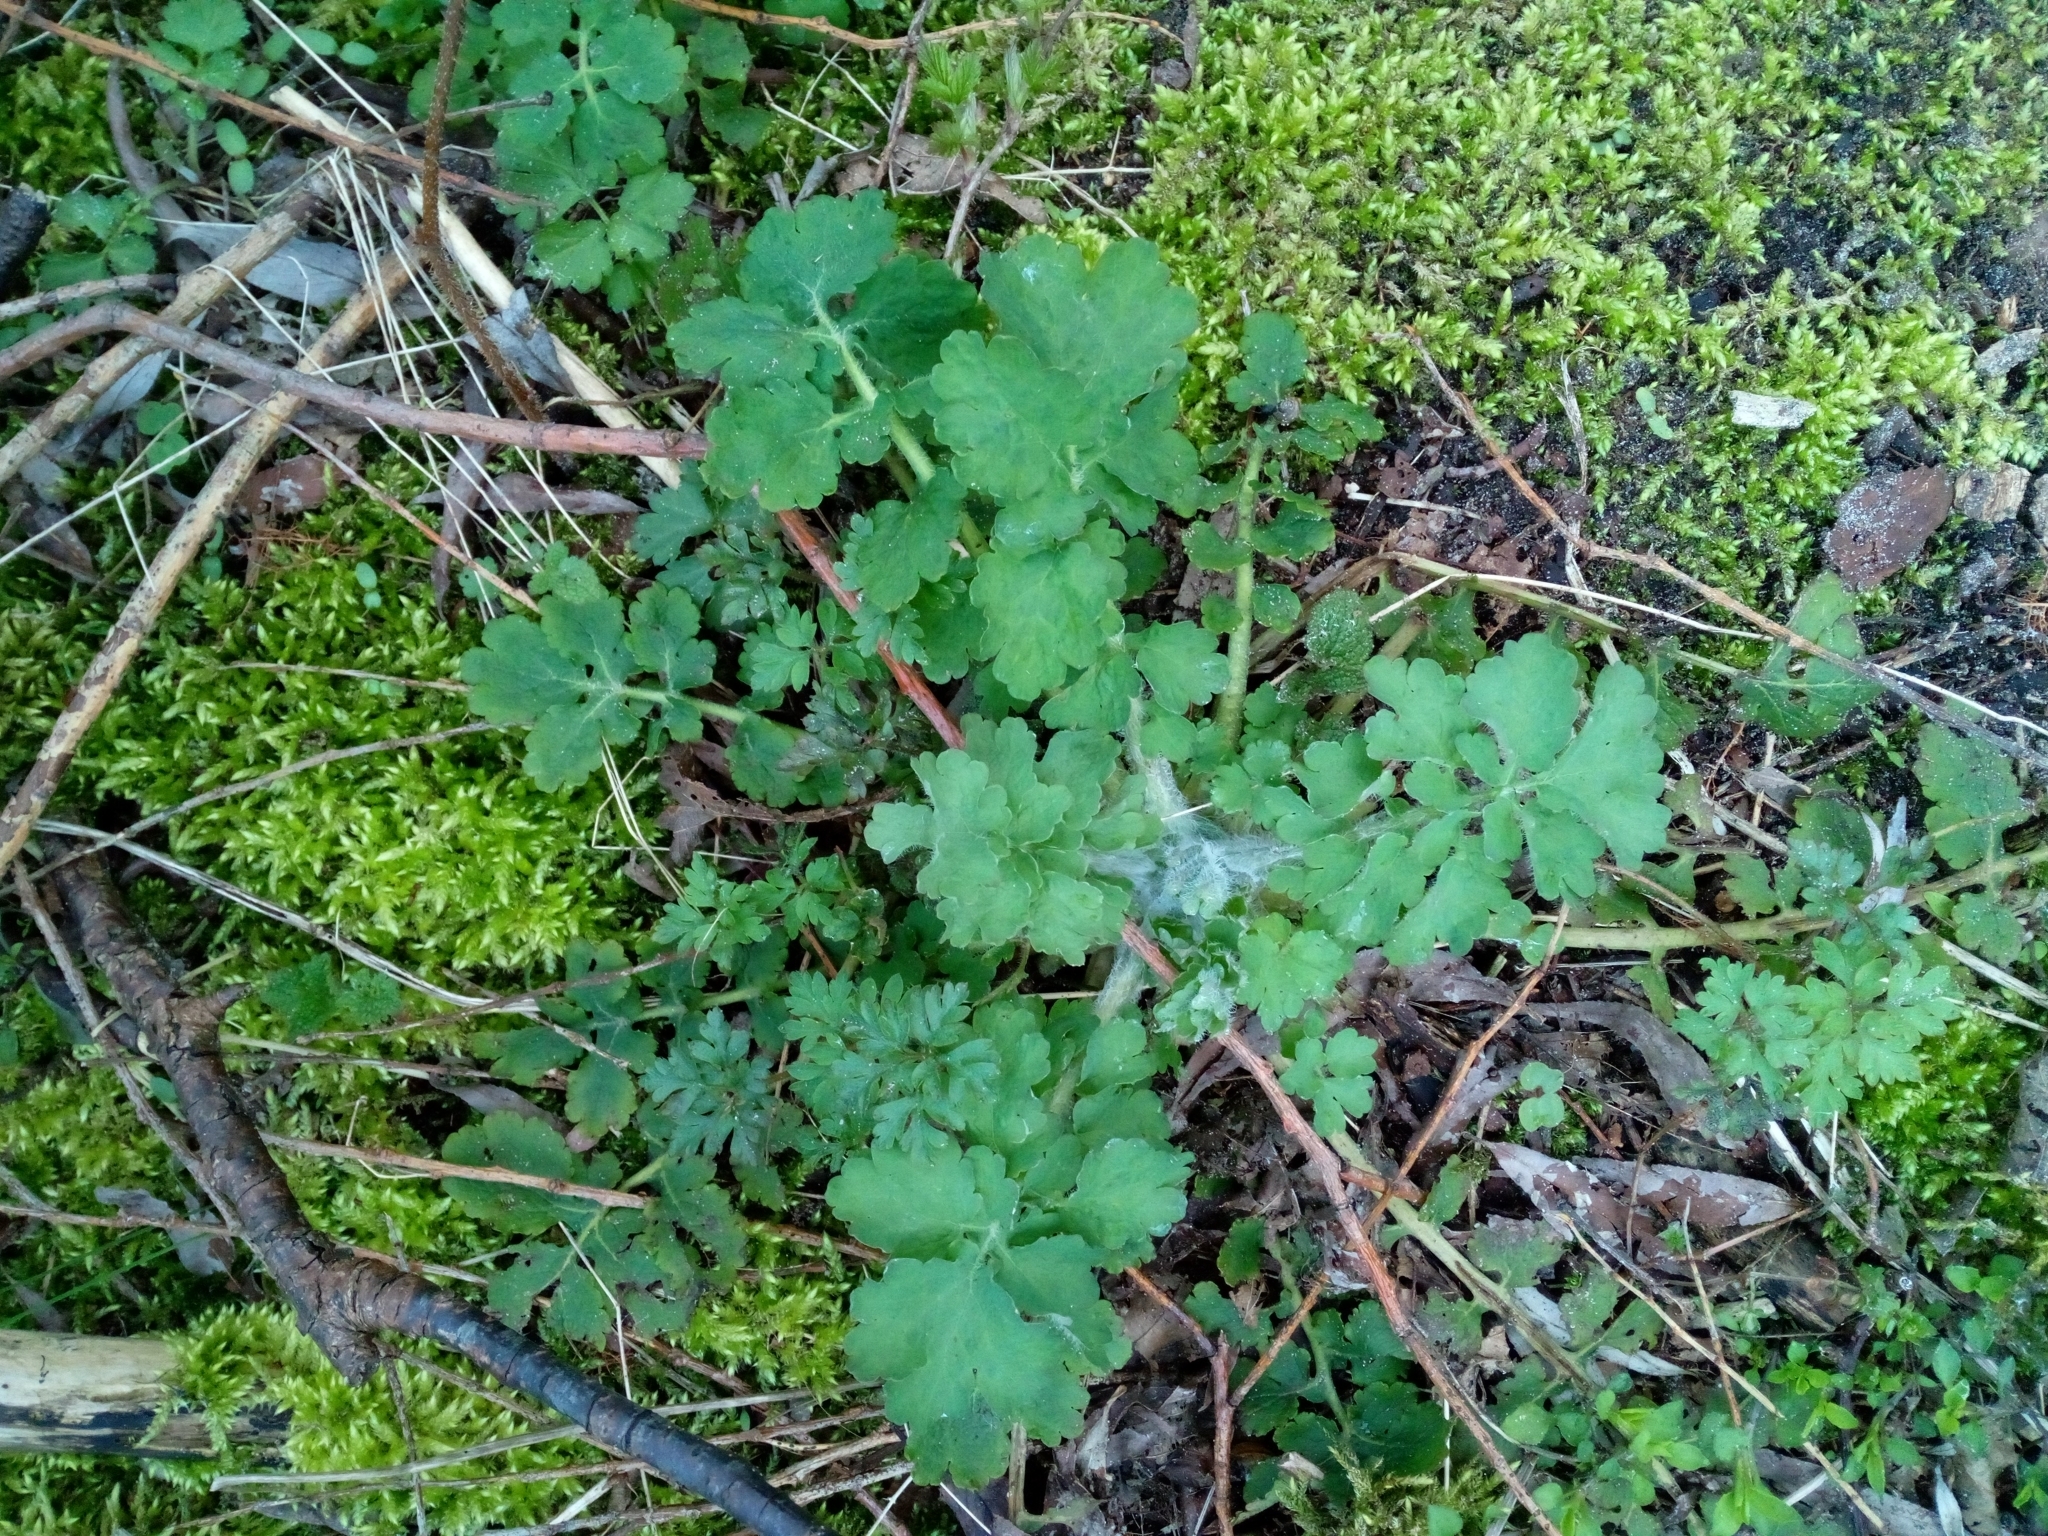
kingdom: Plantae
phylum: Tracheophyta
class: Magnoliopsida
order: Ranunculales
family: Papaveraceae
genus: Chelidonium
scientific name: Chelidonium majus
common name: Greater celandine
